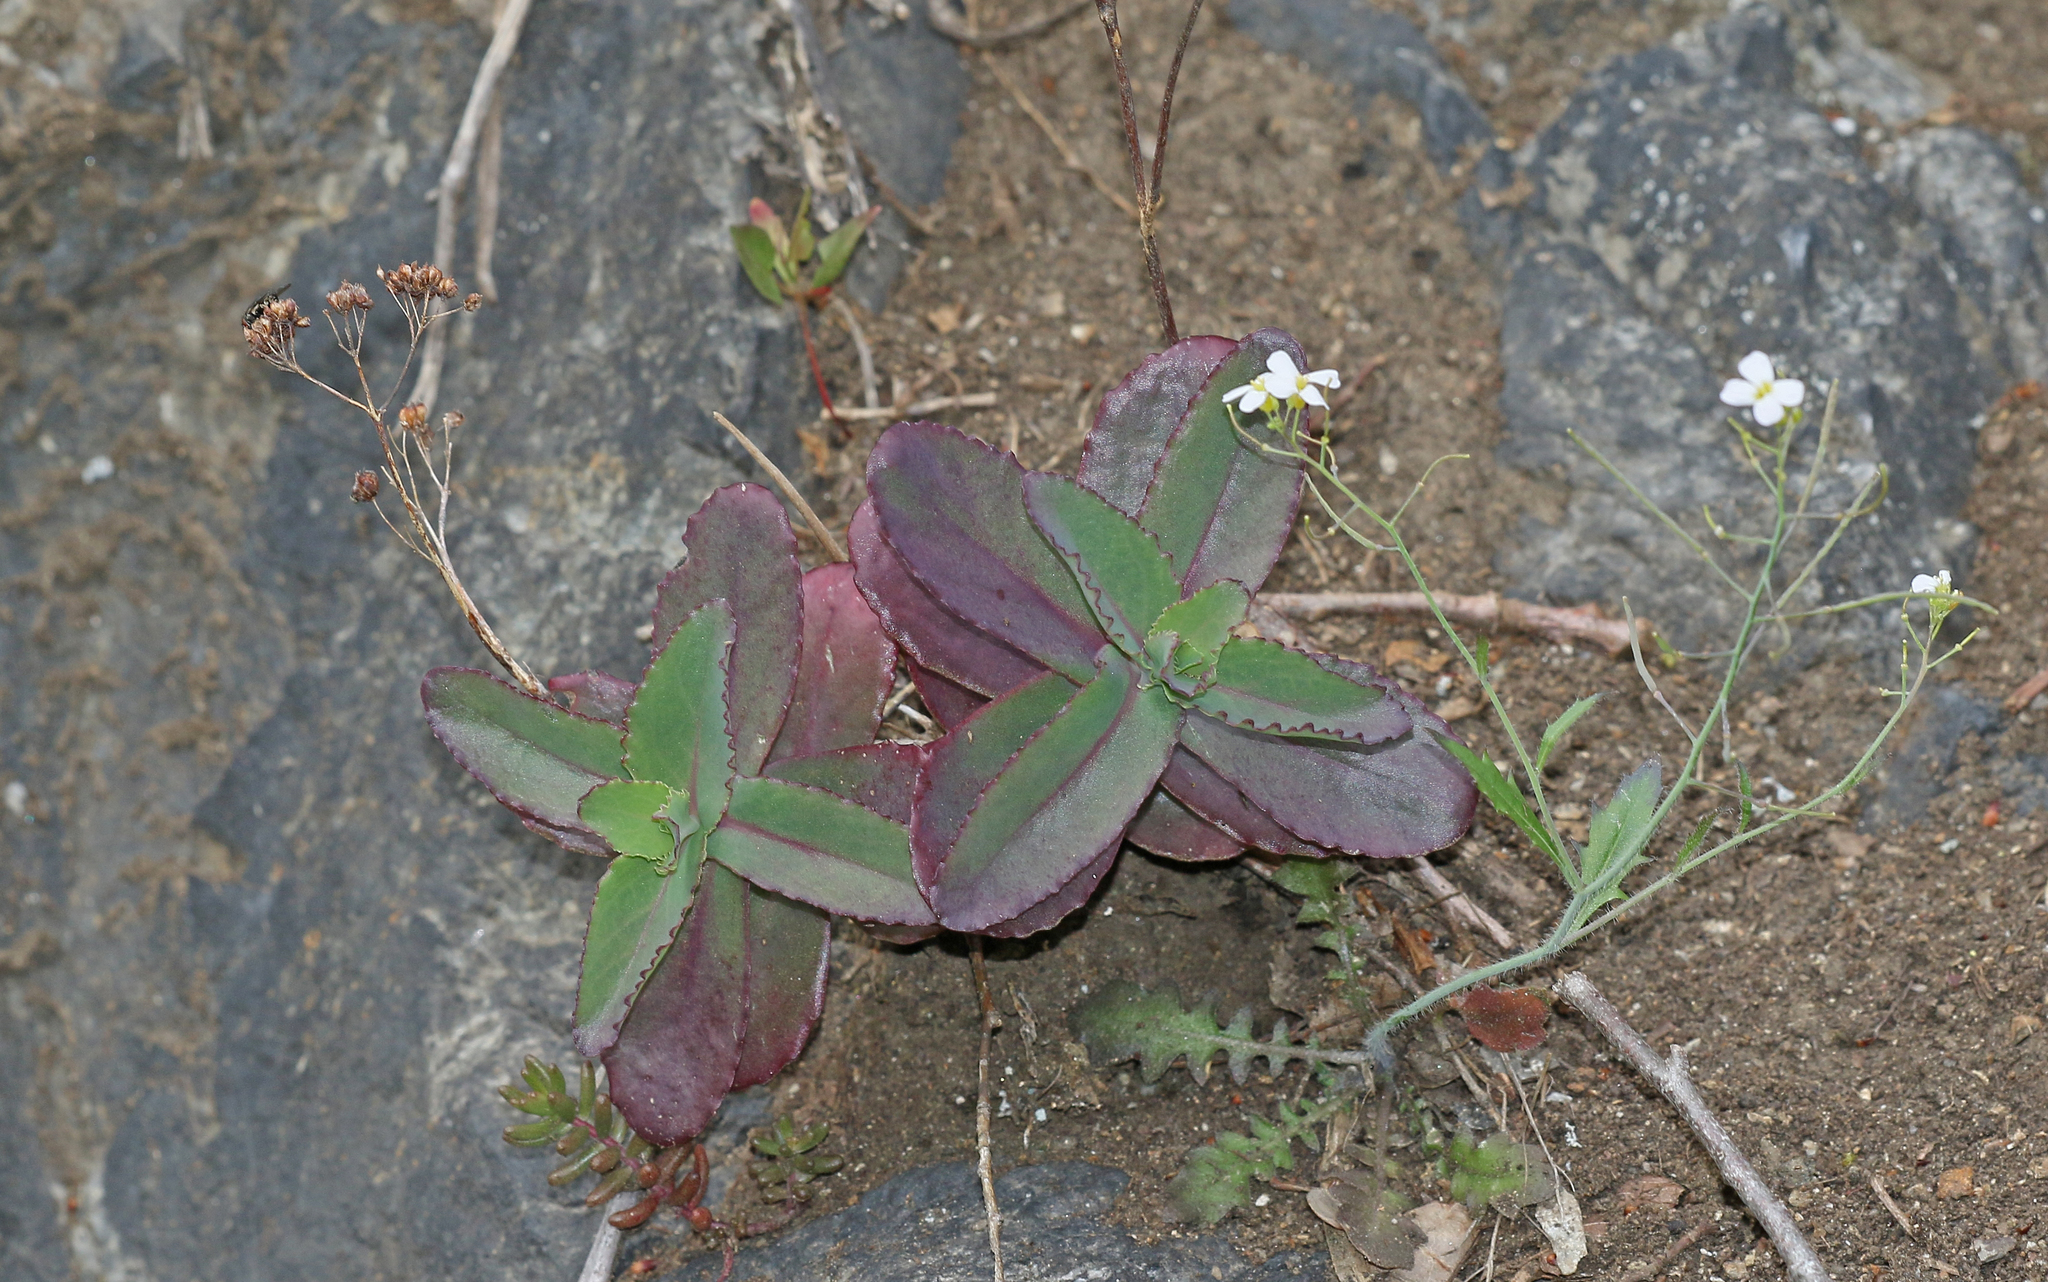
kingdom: Plantae
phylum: Tracheophyta
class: Magnoliopsida
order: Saxifragales
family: Crassulaceae
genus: Hylotelephium
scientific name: Hylotelephium maximum
